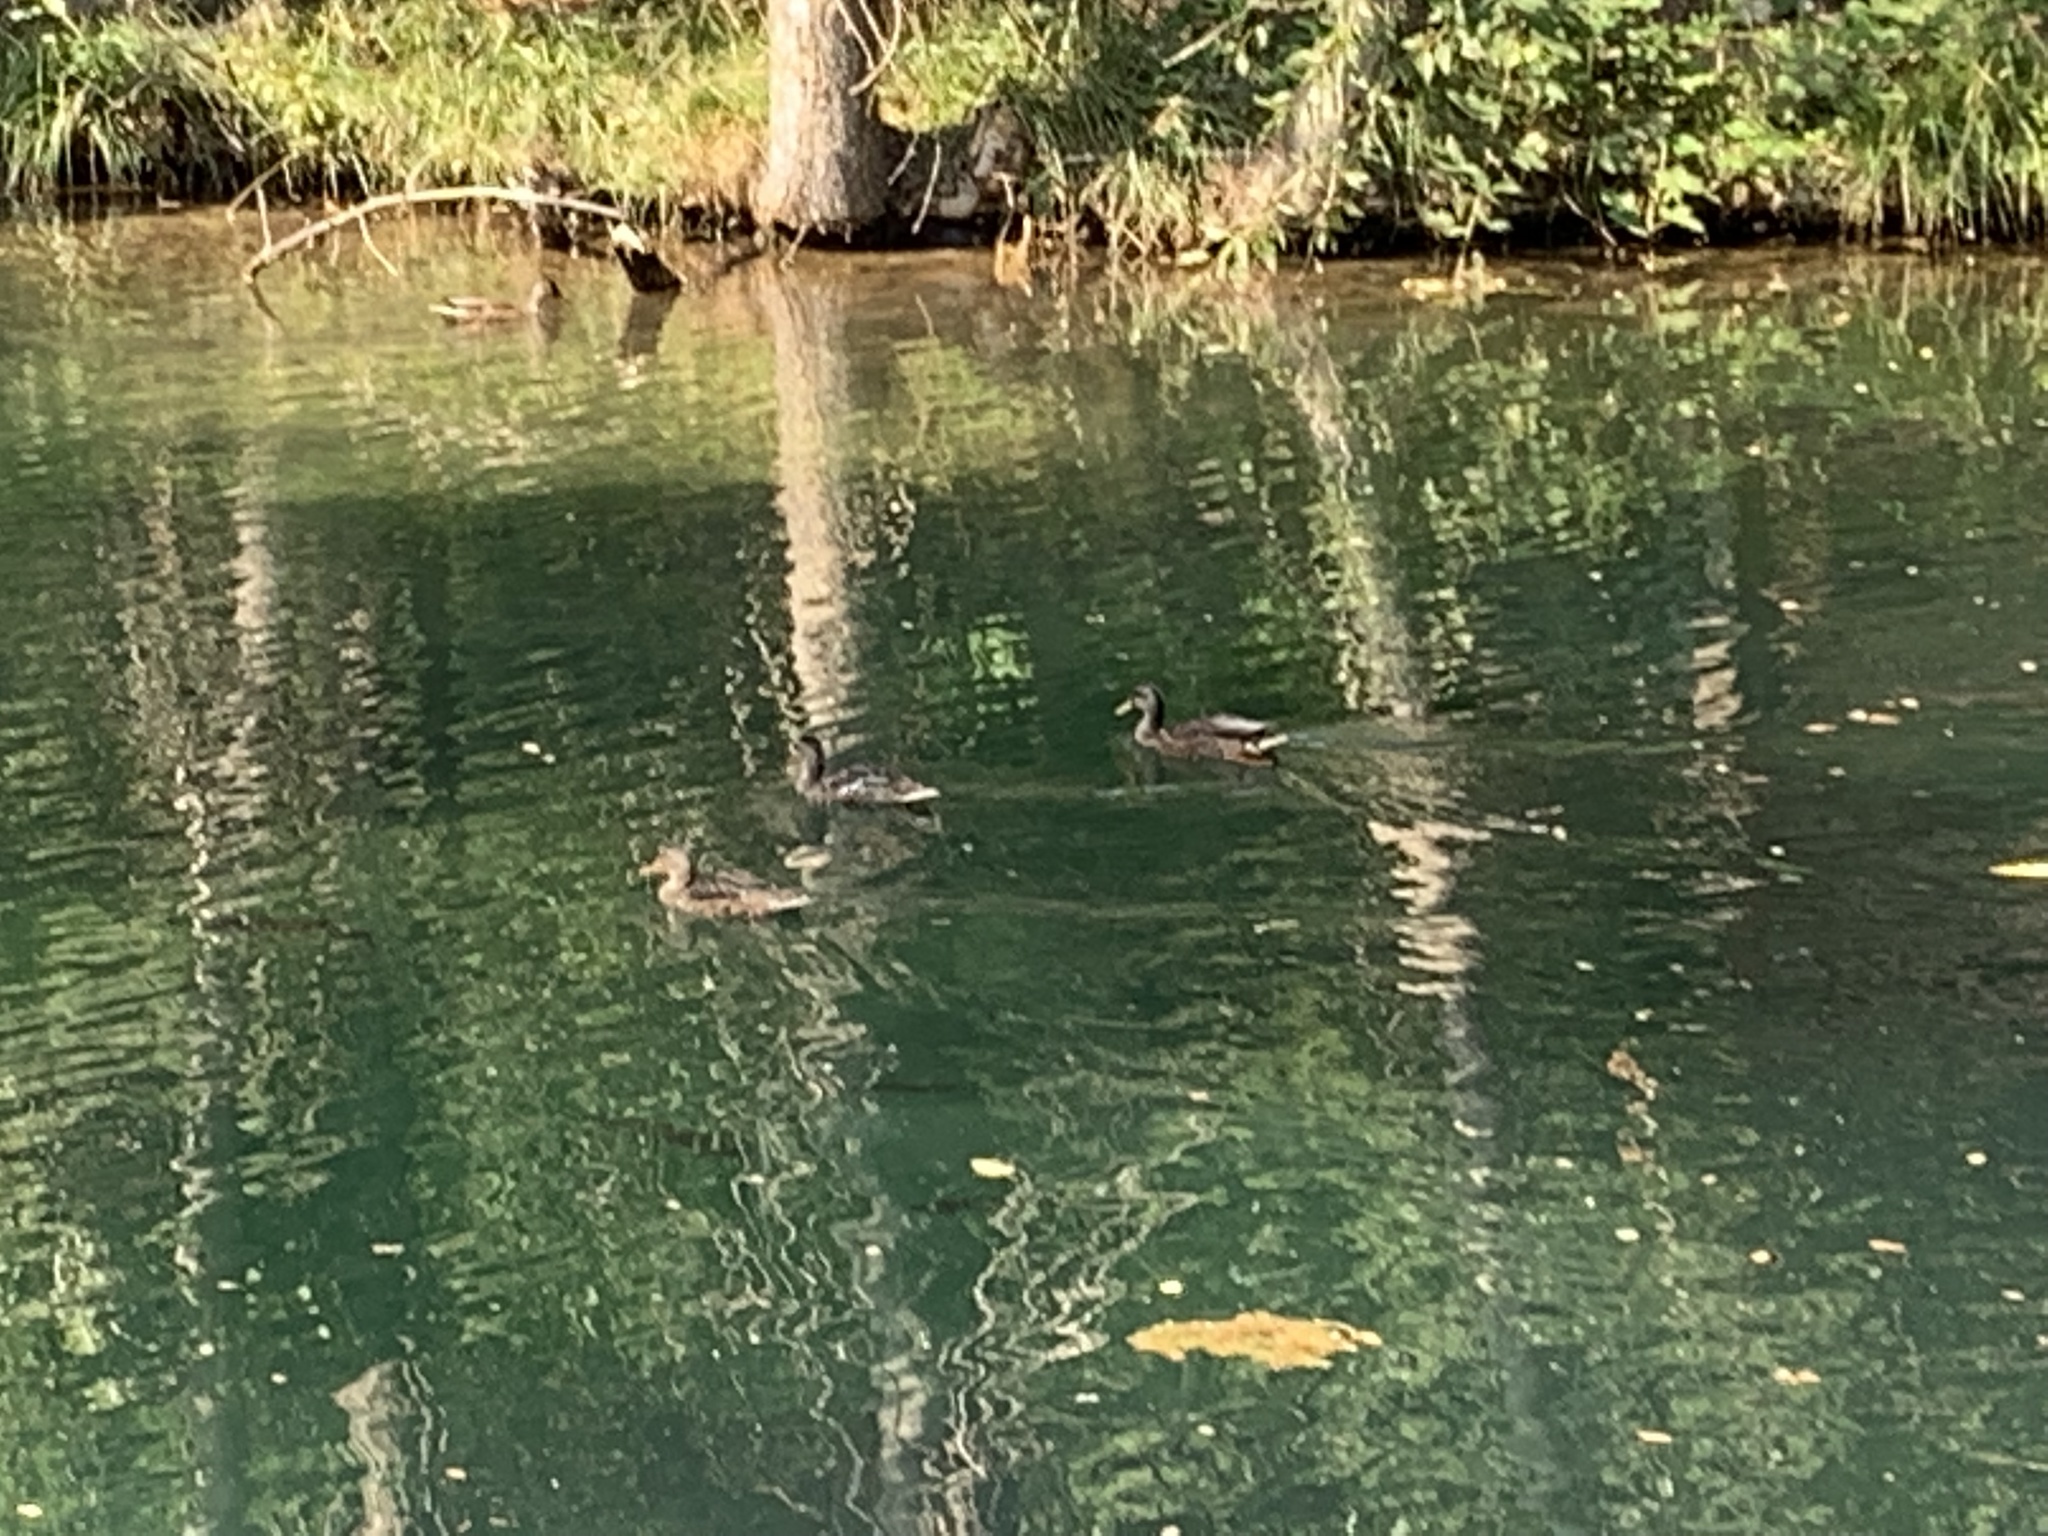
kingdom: Animalia
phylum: Chordata
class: Aves
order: Anseriformes
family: Anatidae
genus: Anas
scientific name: Anas platyrhynchos
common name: Mallard
